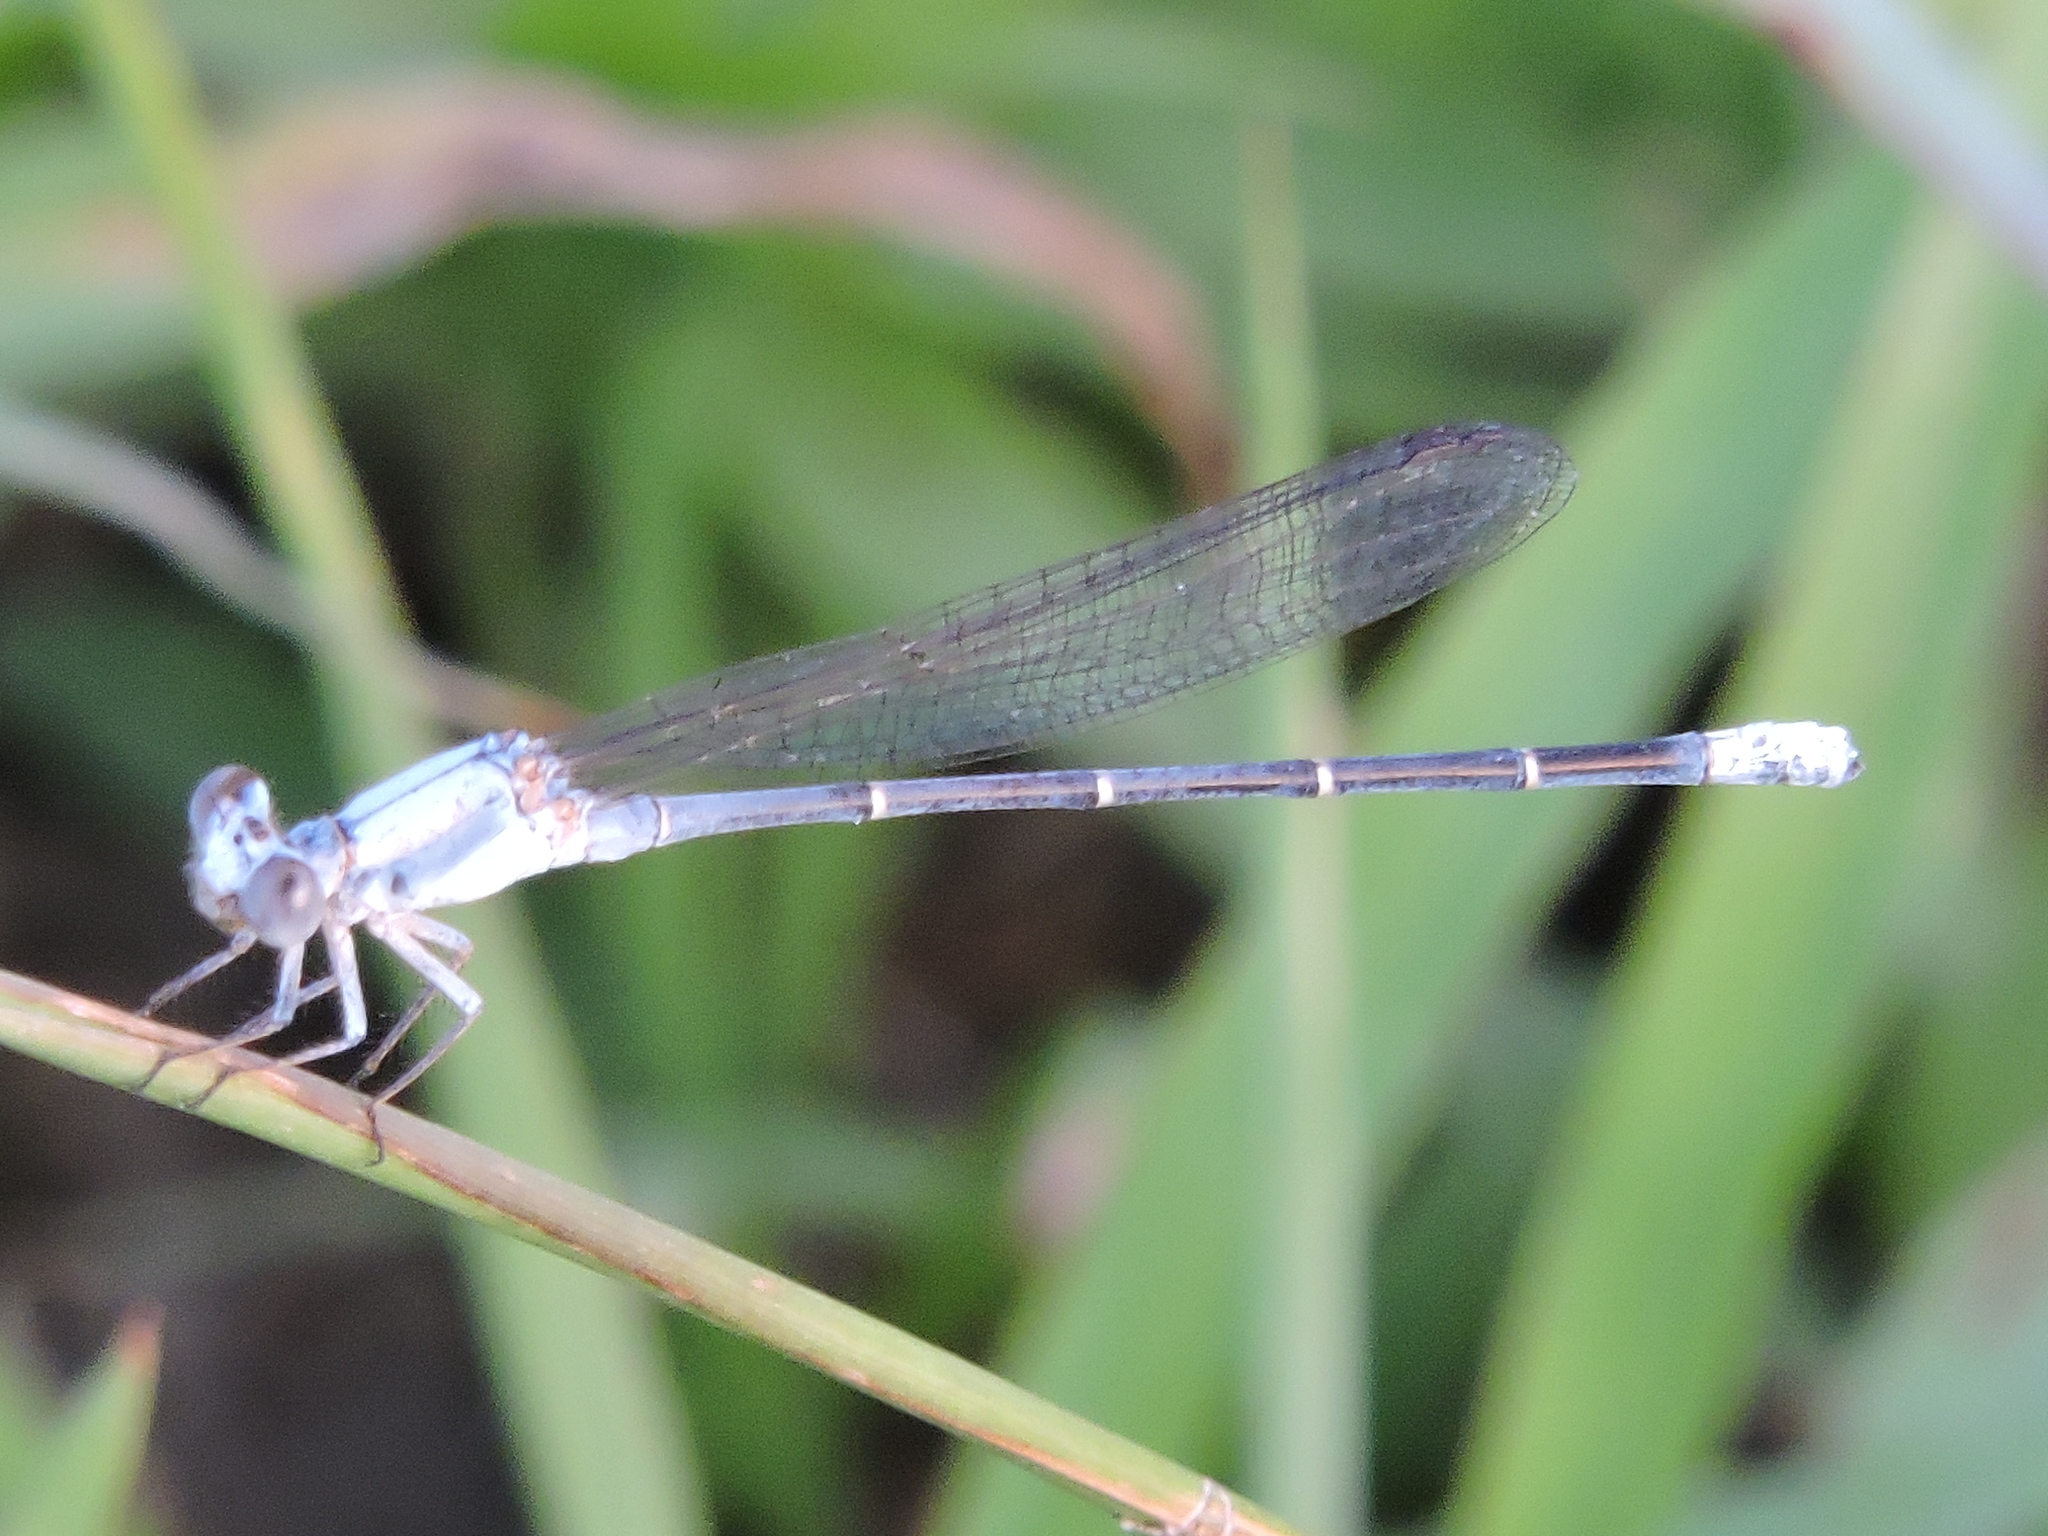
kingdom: Animalia
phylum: Arthropoda
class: Insecta
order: Odonata
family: Coenagrionidae
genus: Argia
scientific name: Argia moesta
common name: Powdered dancer
